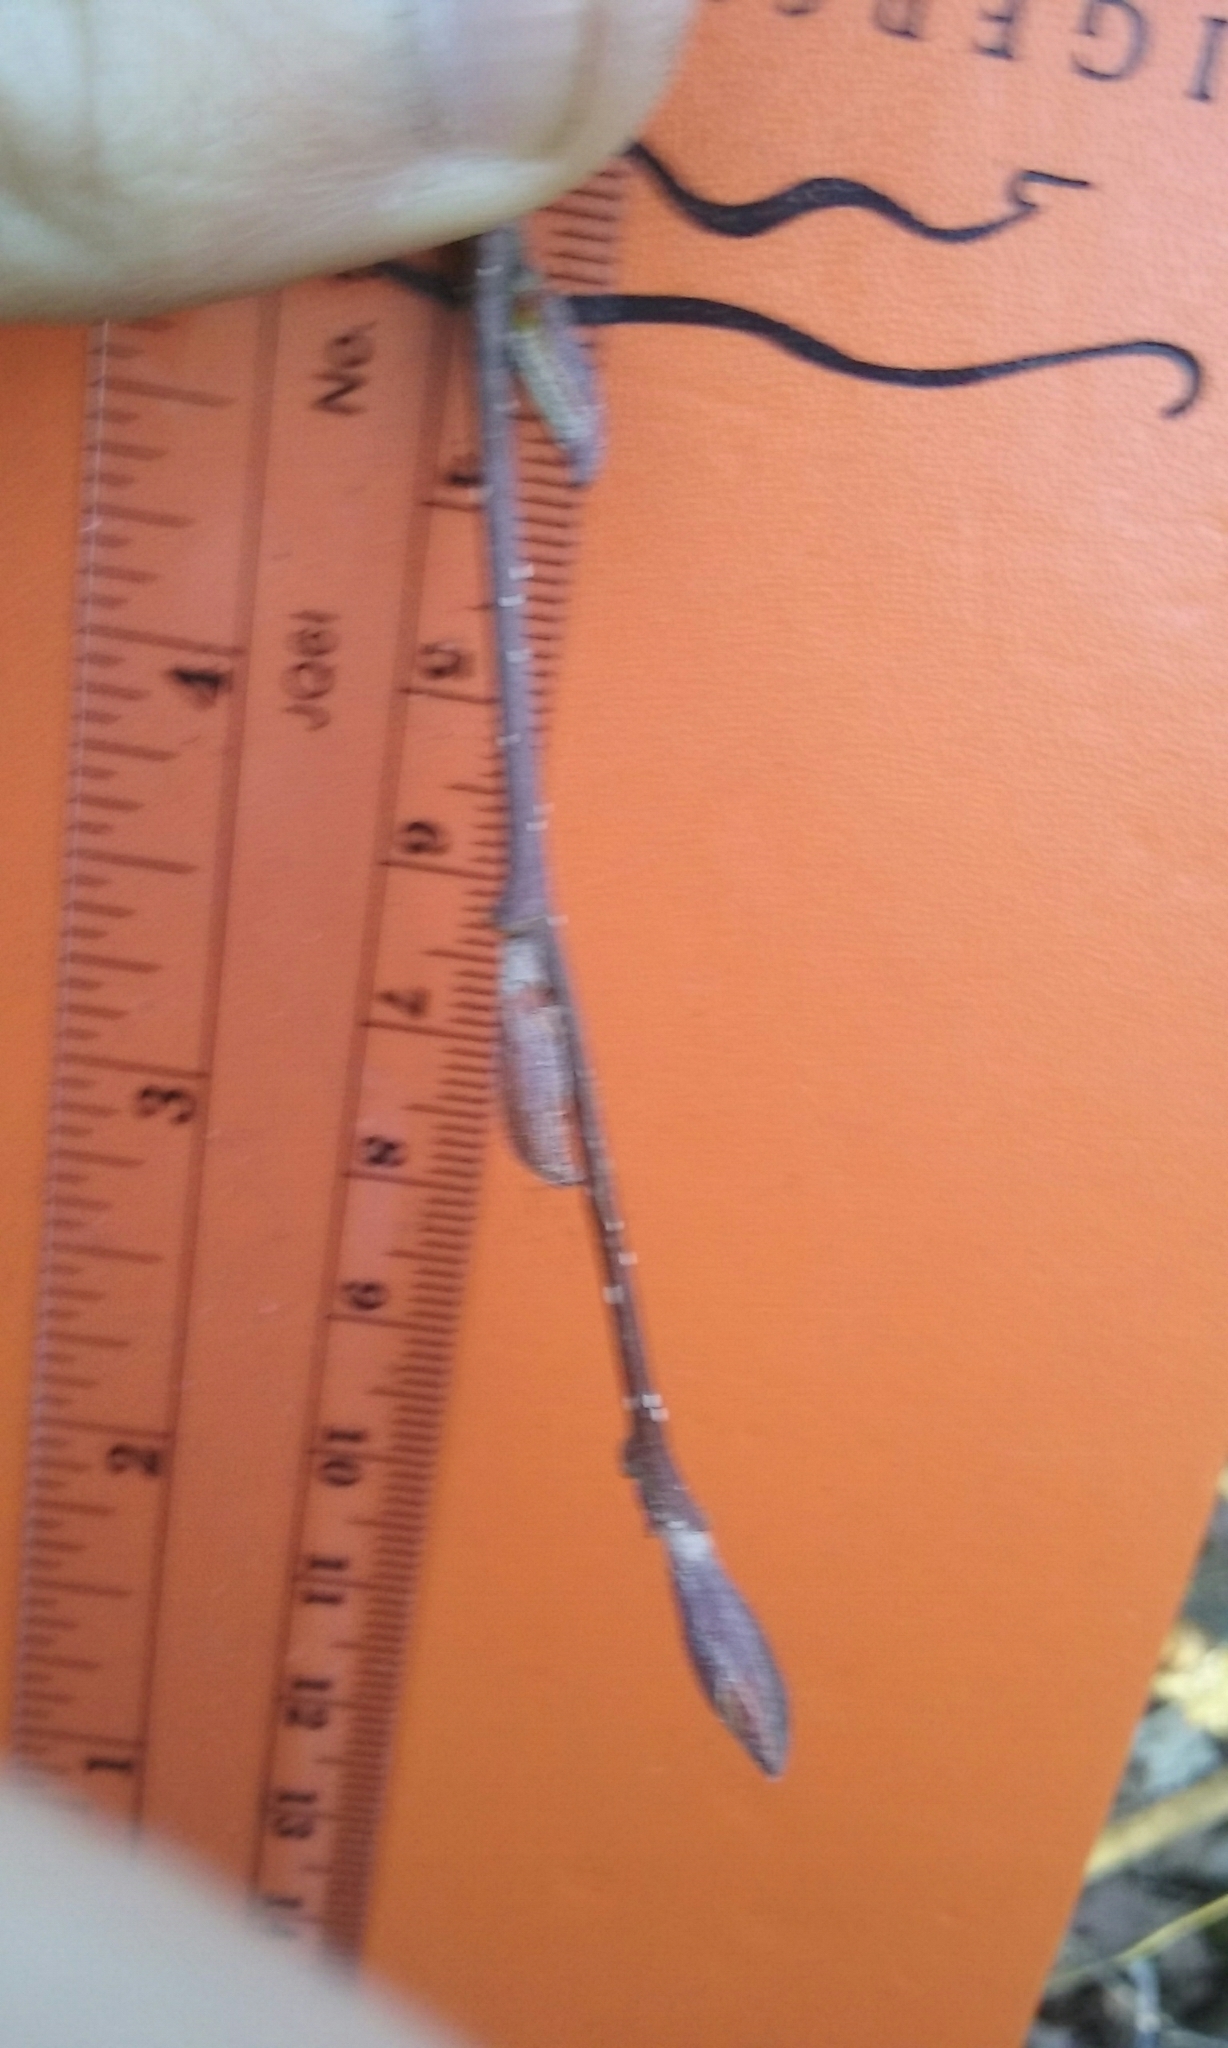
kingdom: Plantae
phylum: Tracheophyta
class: Magnoliopsida
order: Fagales
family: Betulaceae
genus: Alnus
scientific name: Alnus incana
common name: Grey alder
